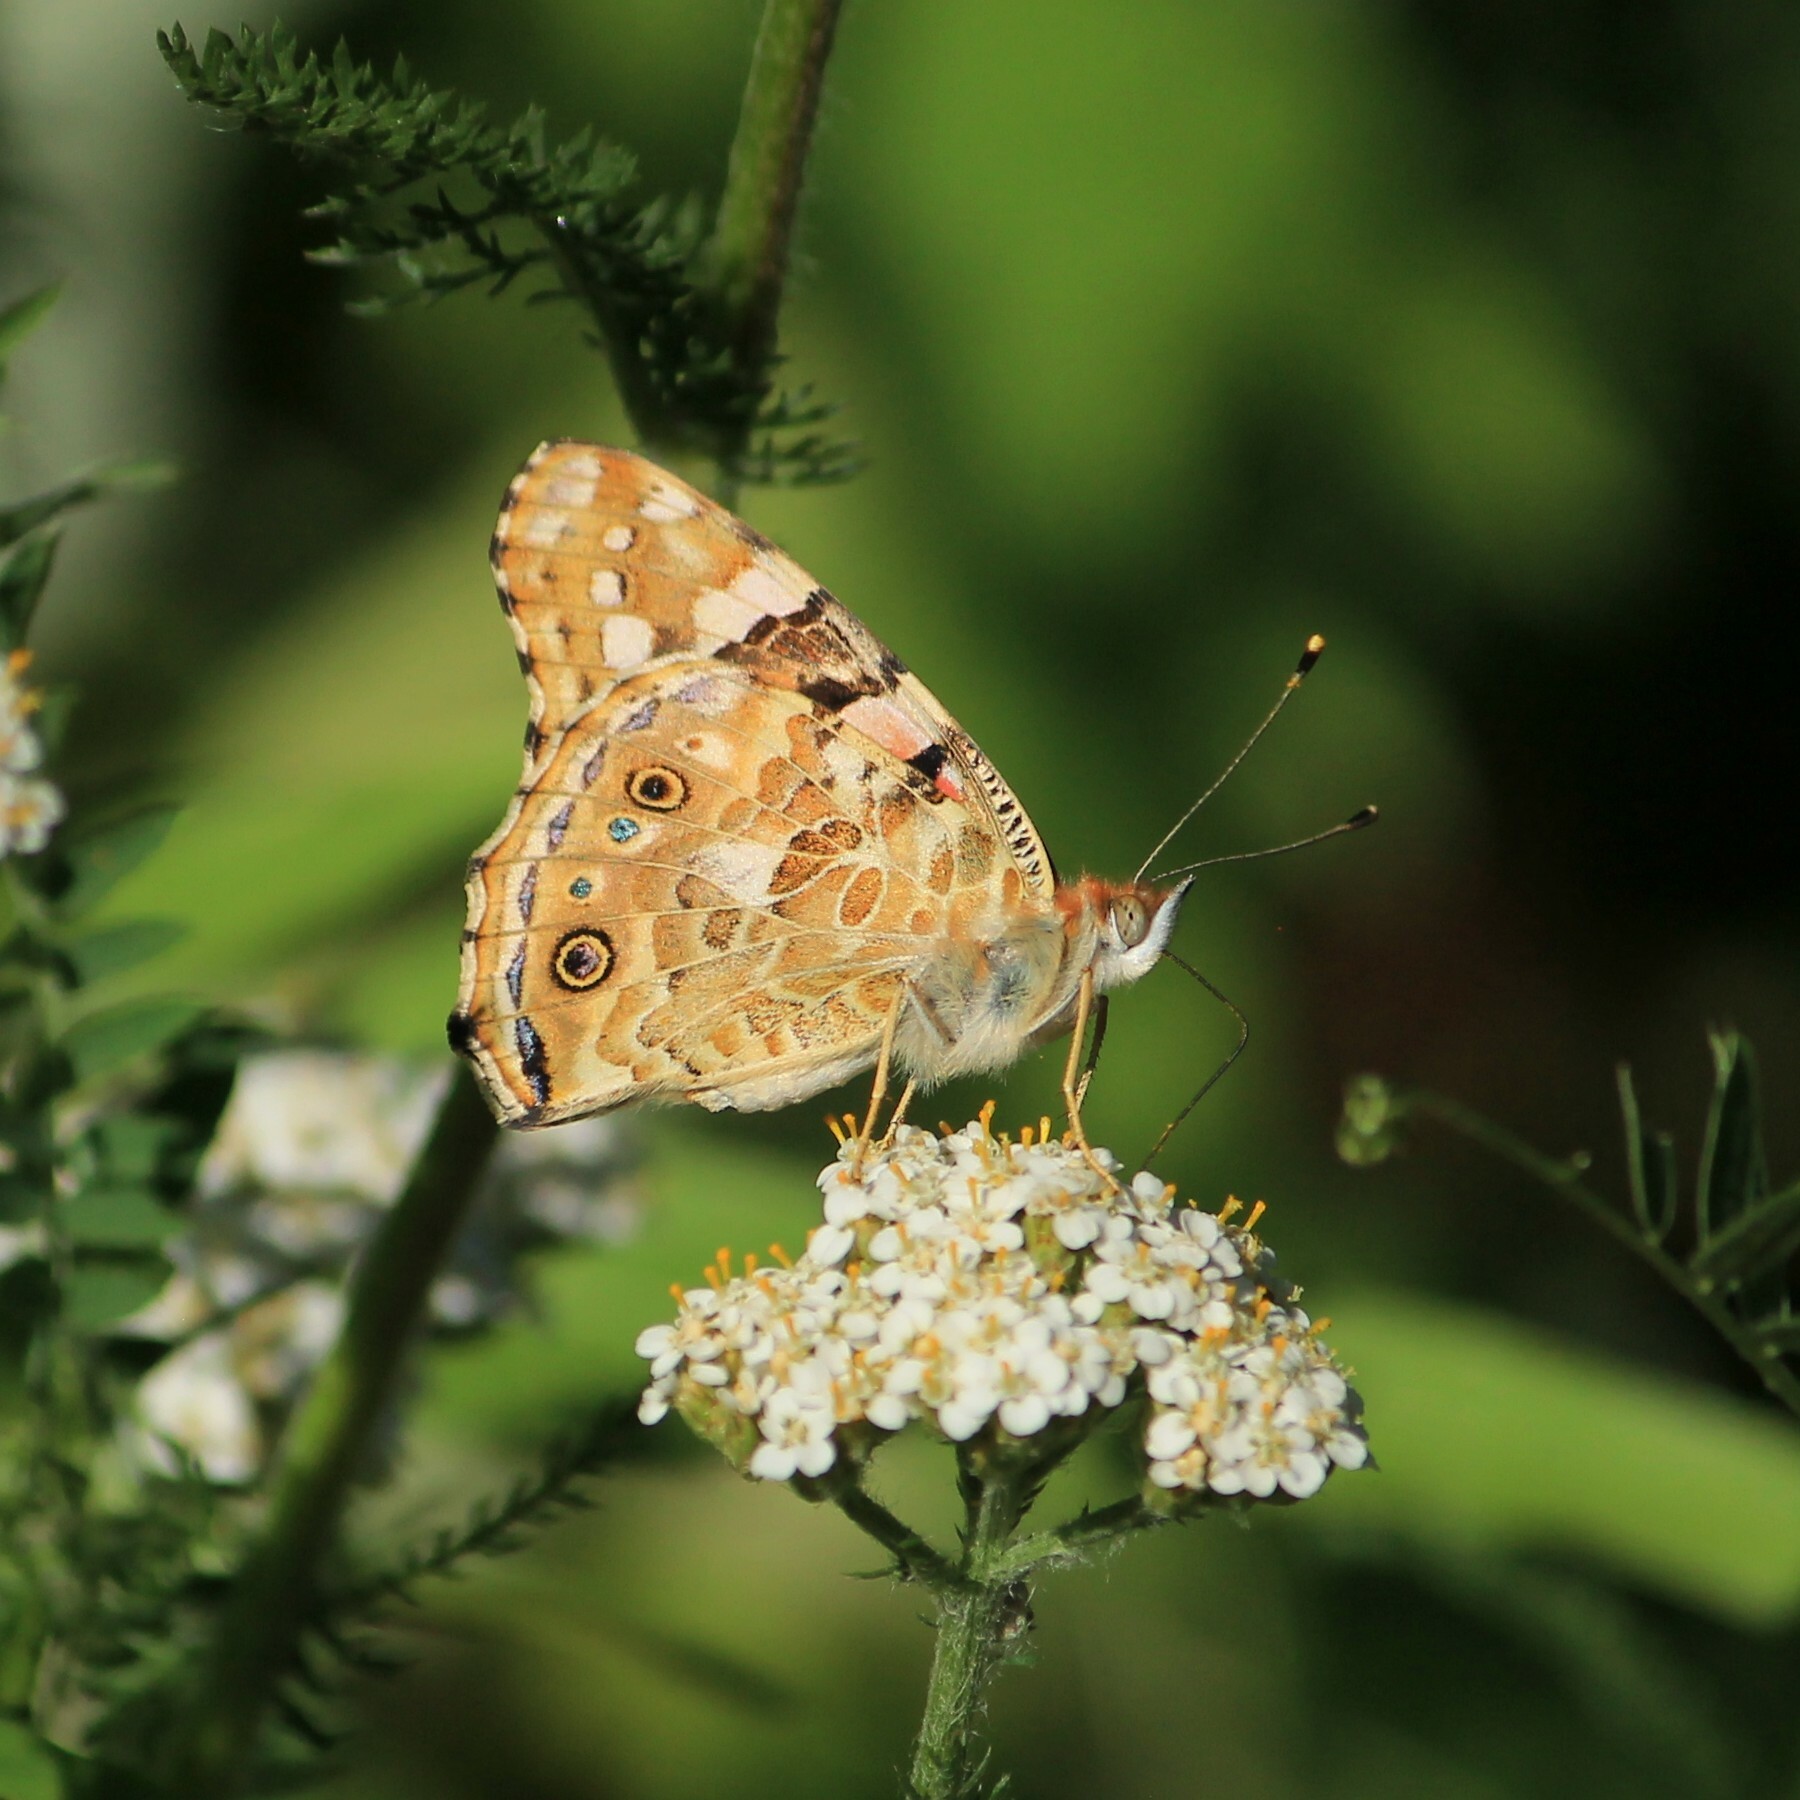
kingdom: Animalia
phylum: Arthropoda
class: Insecta
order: Lepidoptera
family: Nymphalidae
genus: Vanessa
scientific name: Vanessa cardui
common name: Painted lady
